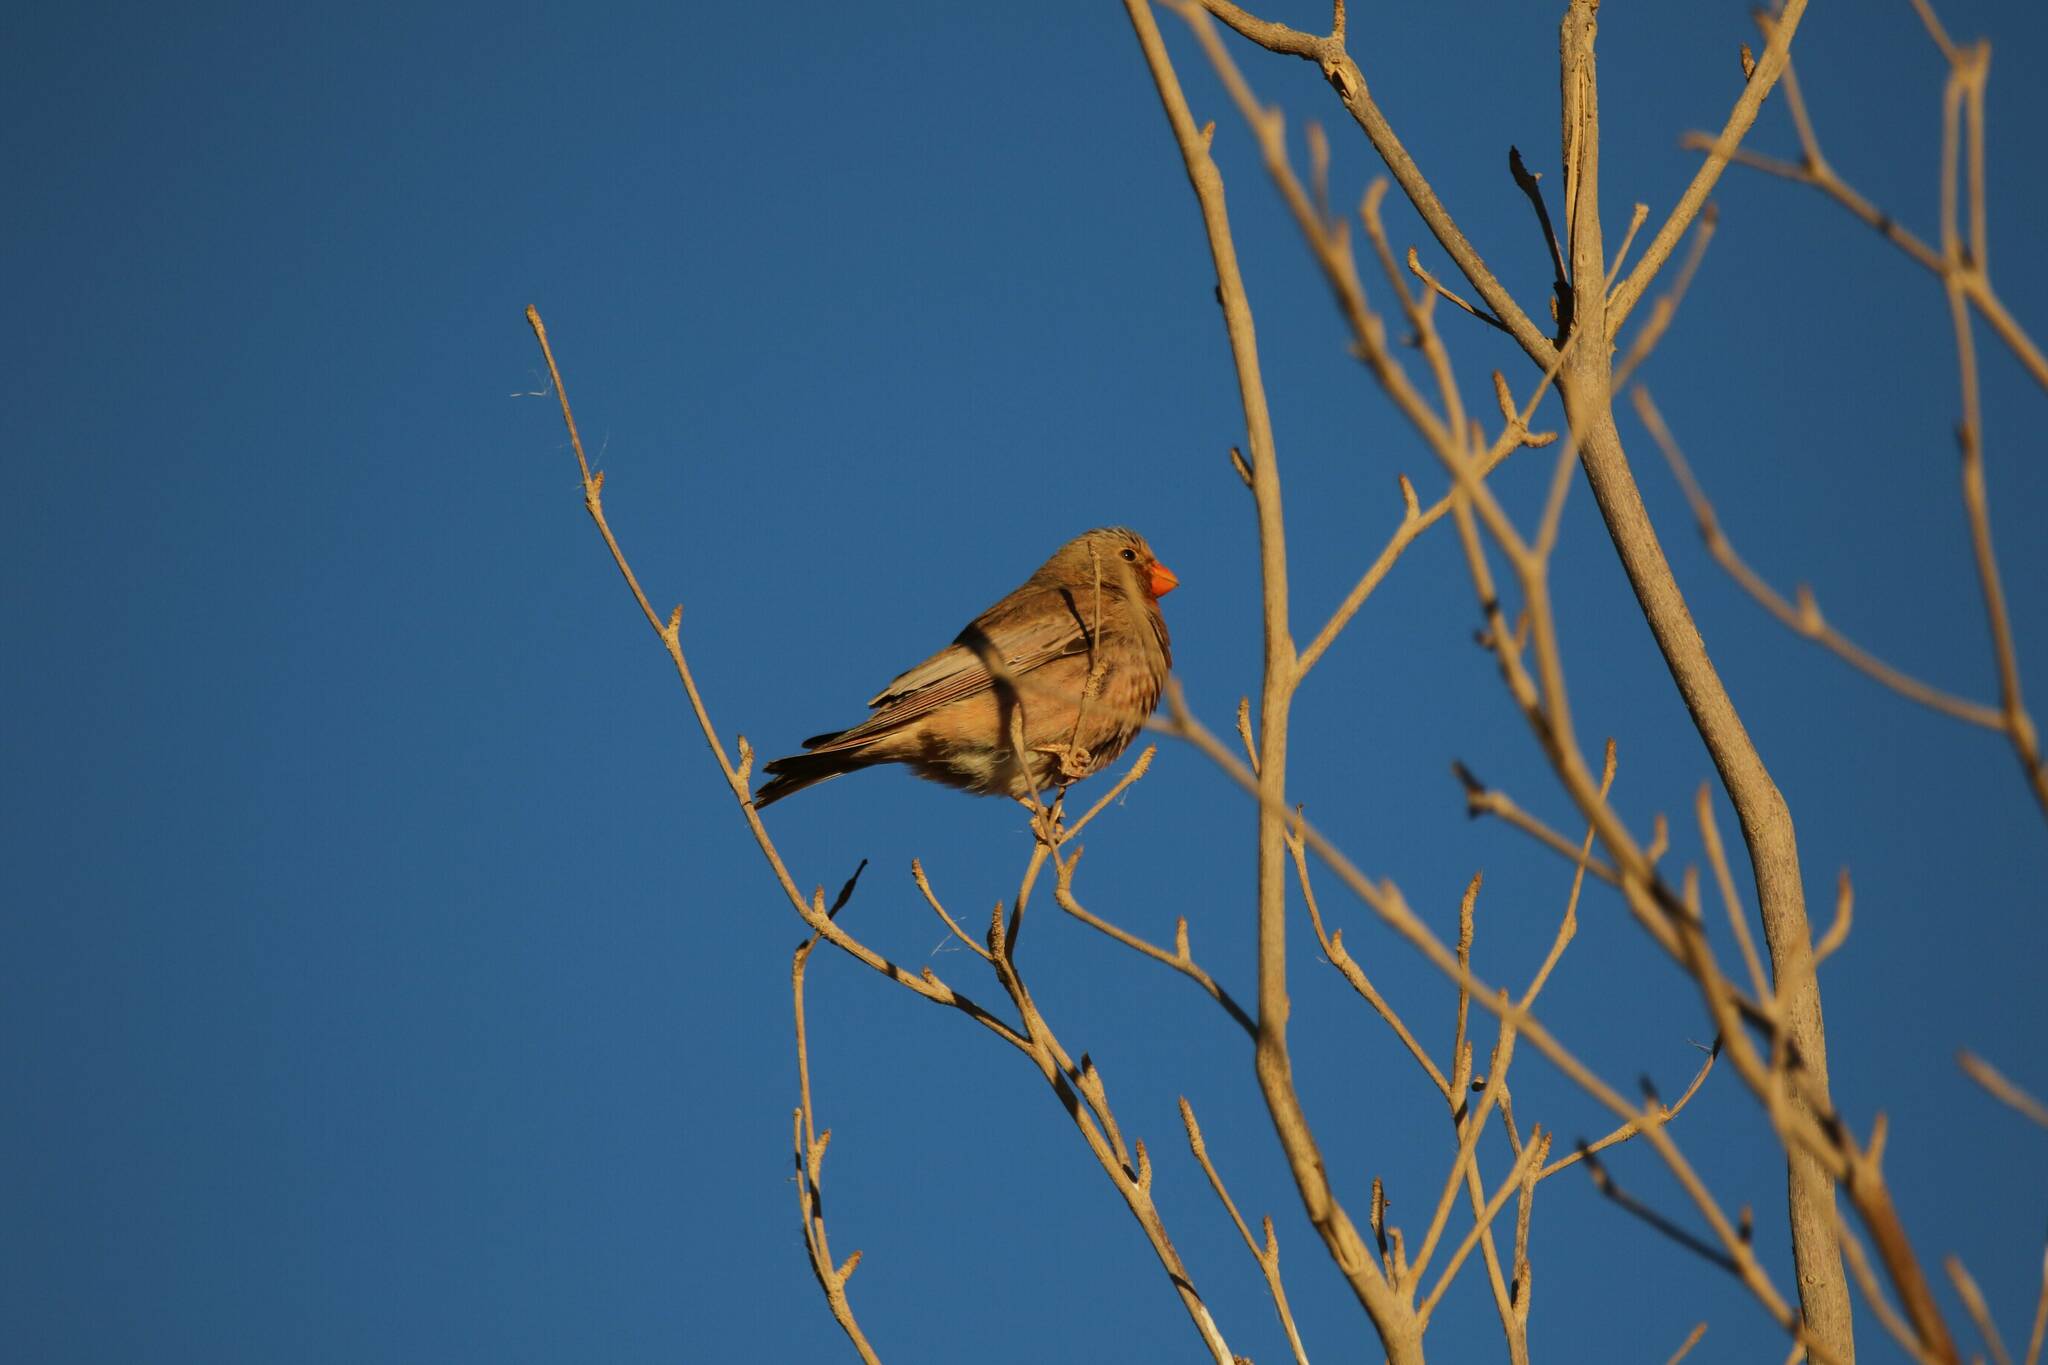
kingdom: Animalia
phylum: Chordata
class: Aves
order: Passeriformes
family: Fringillidae
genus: Bucanetes
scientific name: Bucanetes githagineus
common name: Trumpeter finch
